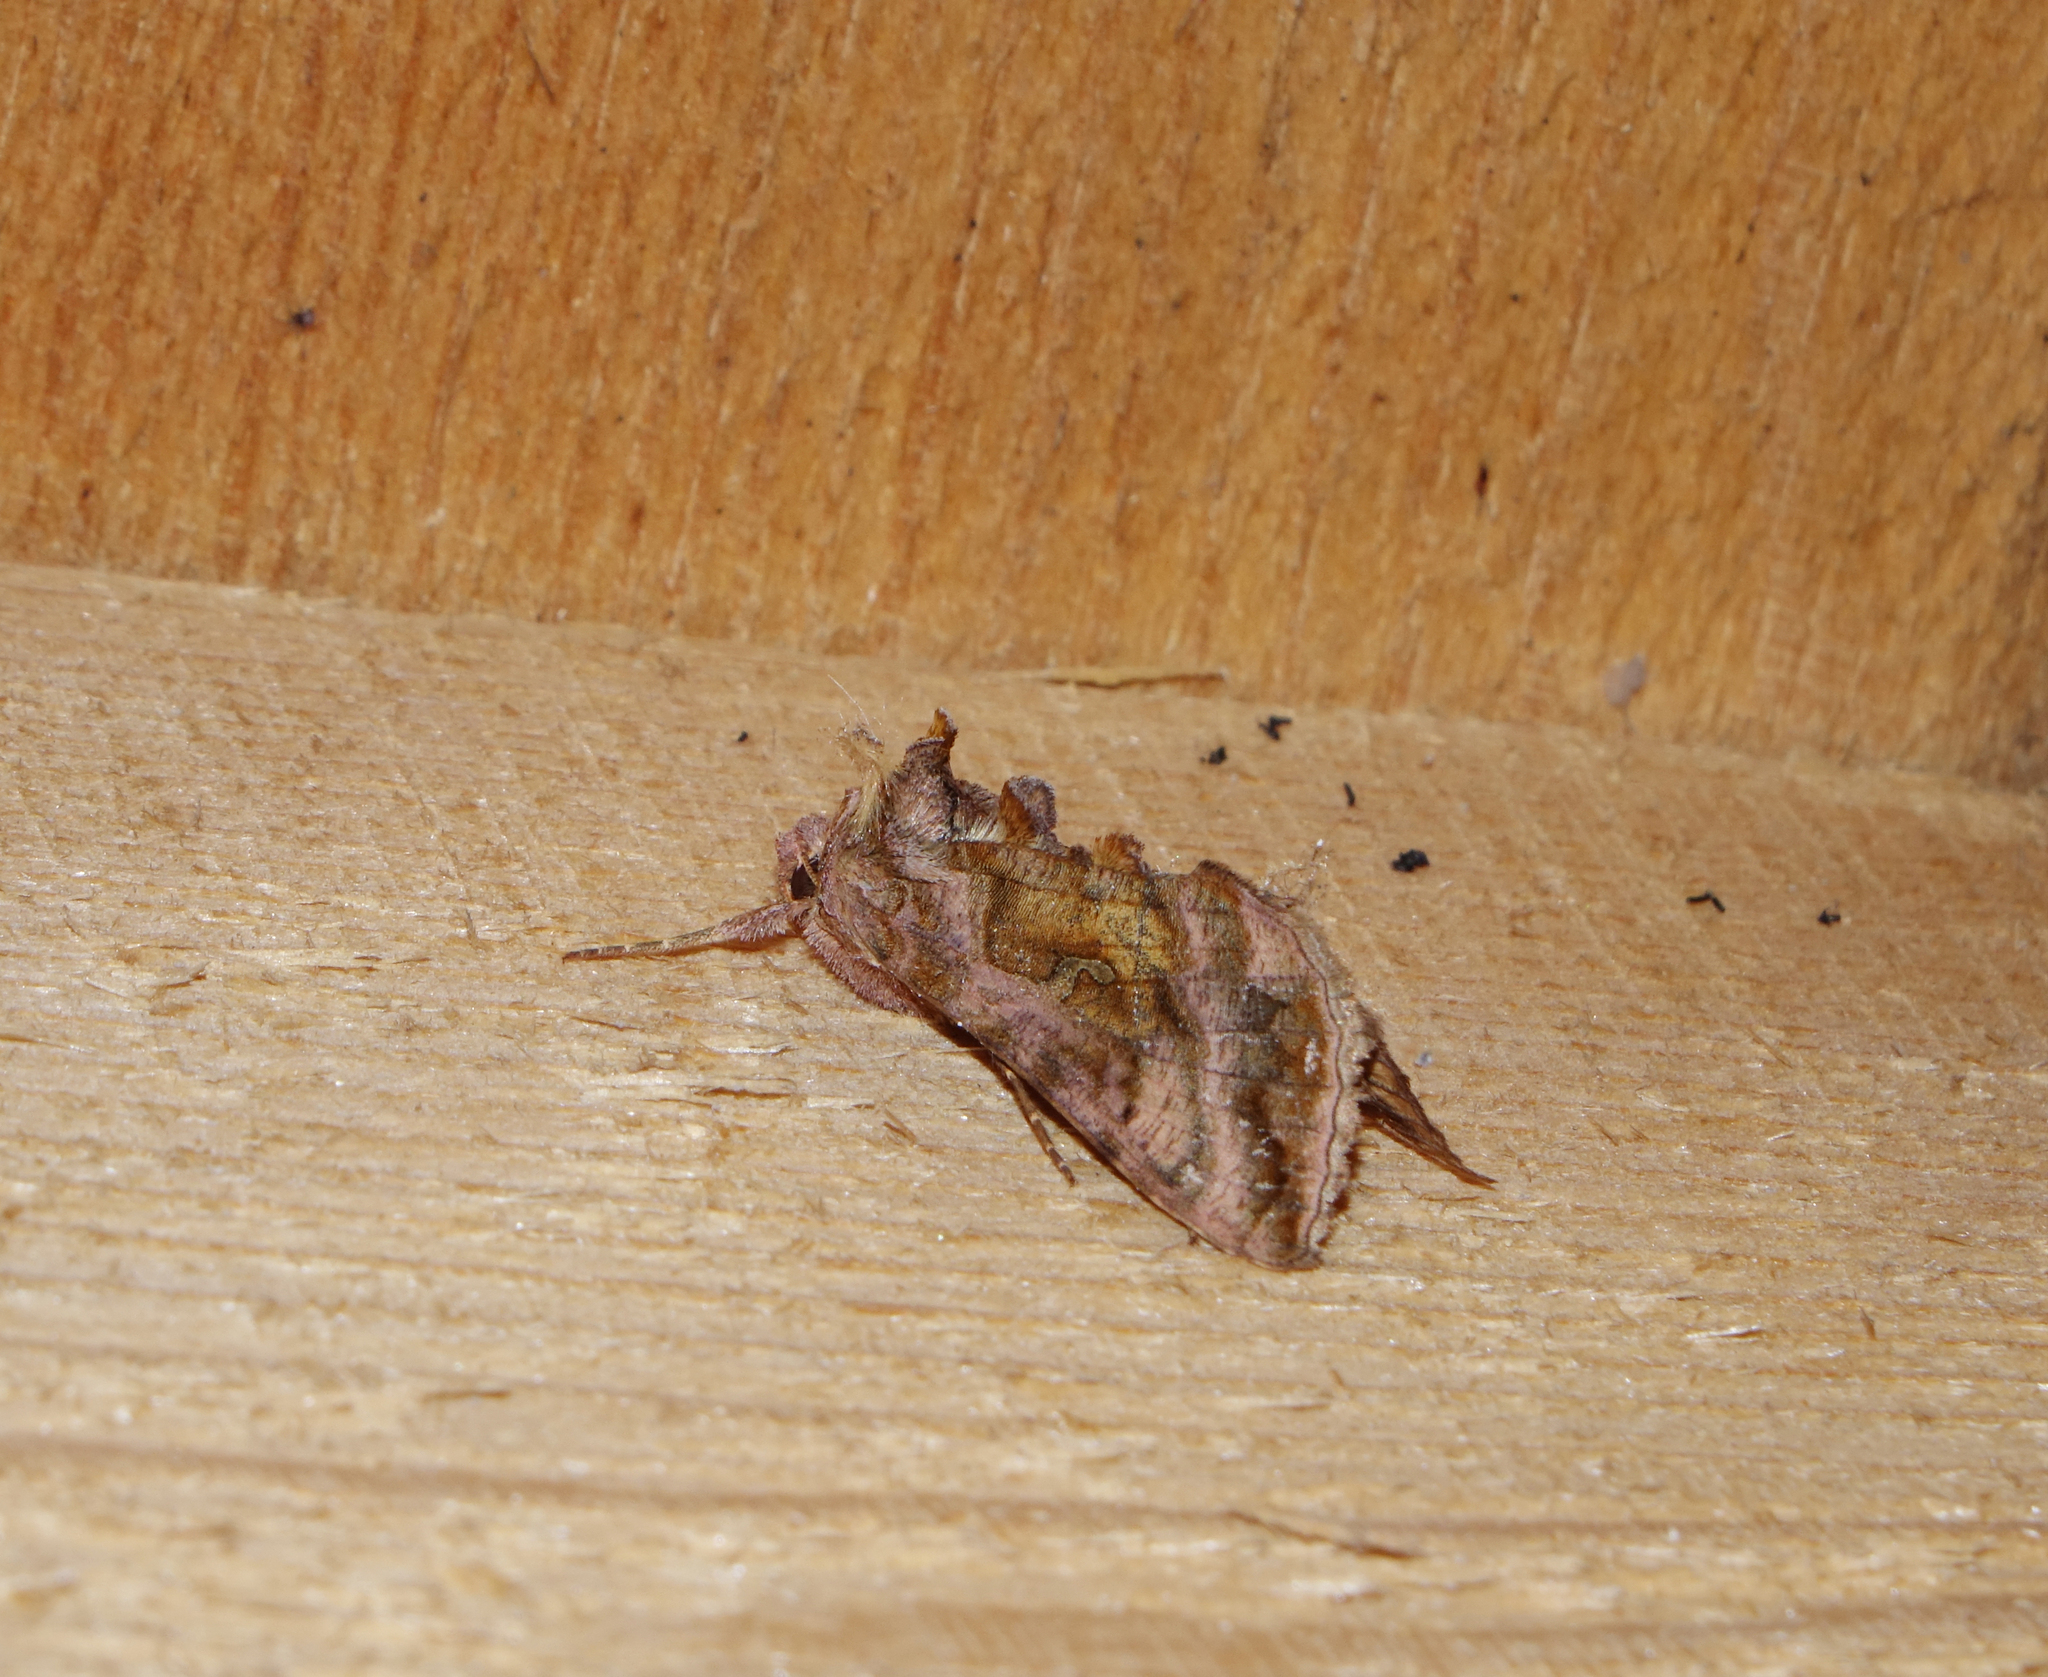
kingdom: Animalia
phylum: Arthropoda
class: Insecta
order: Lepidoptera
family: Noctuidae
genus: Autographa
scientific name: Autographa jota
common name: Plain golden y
